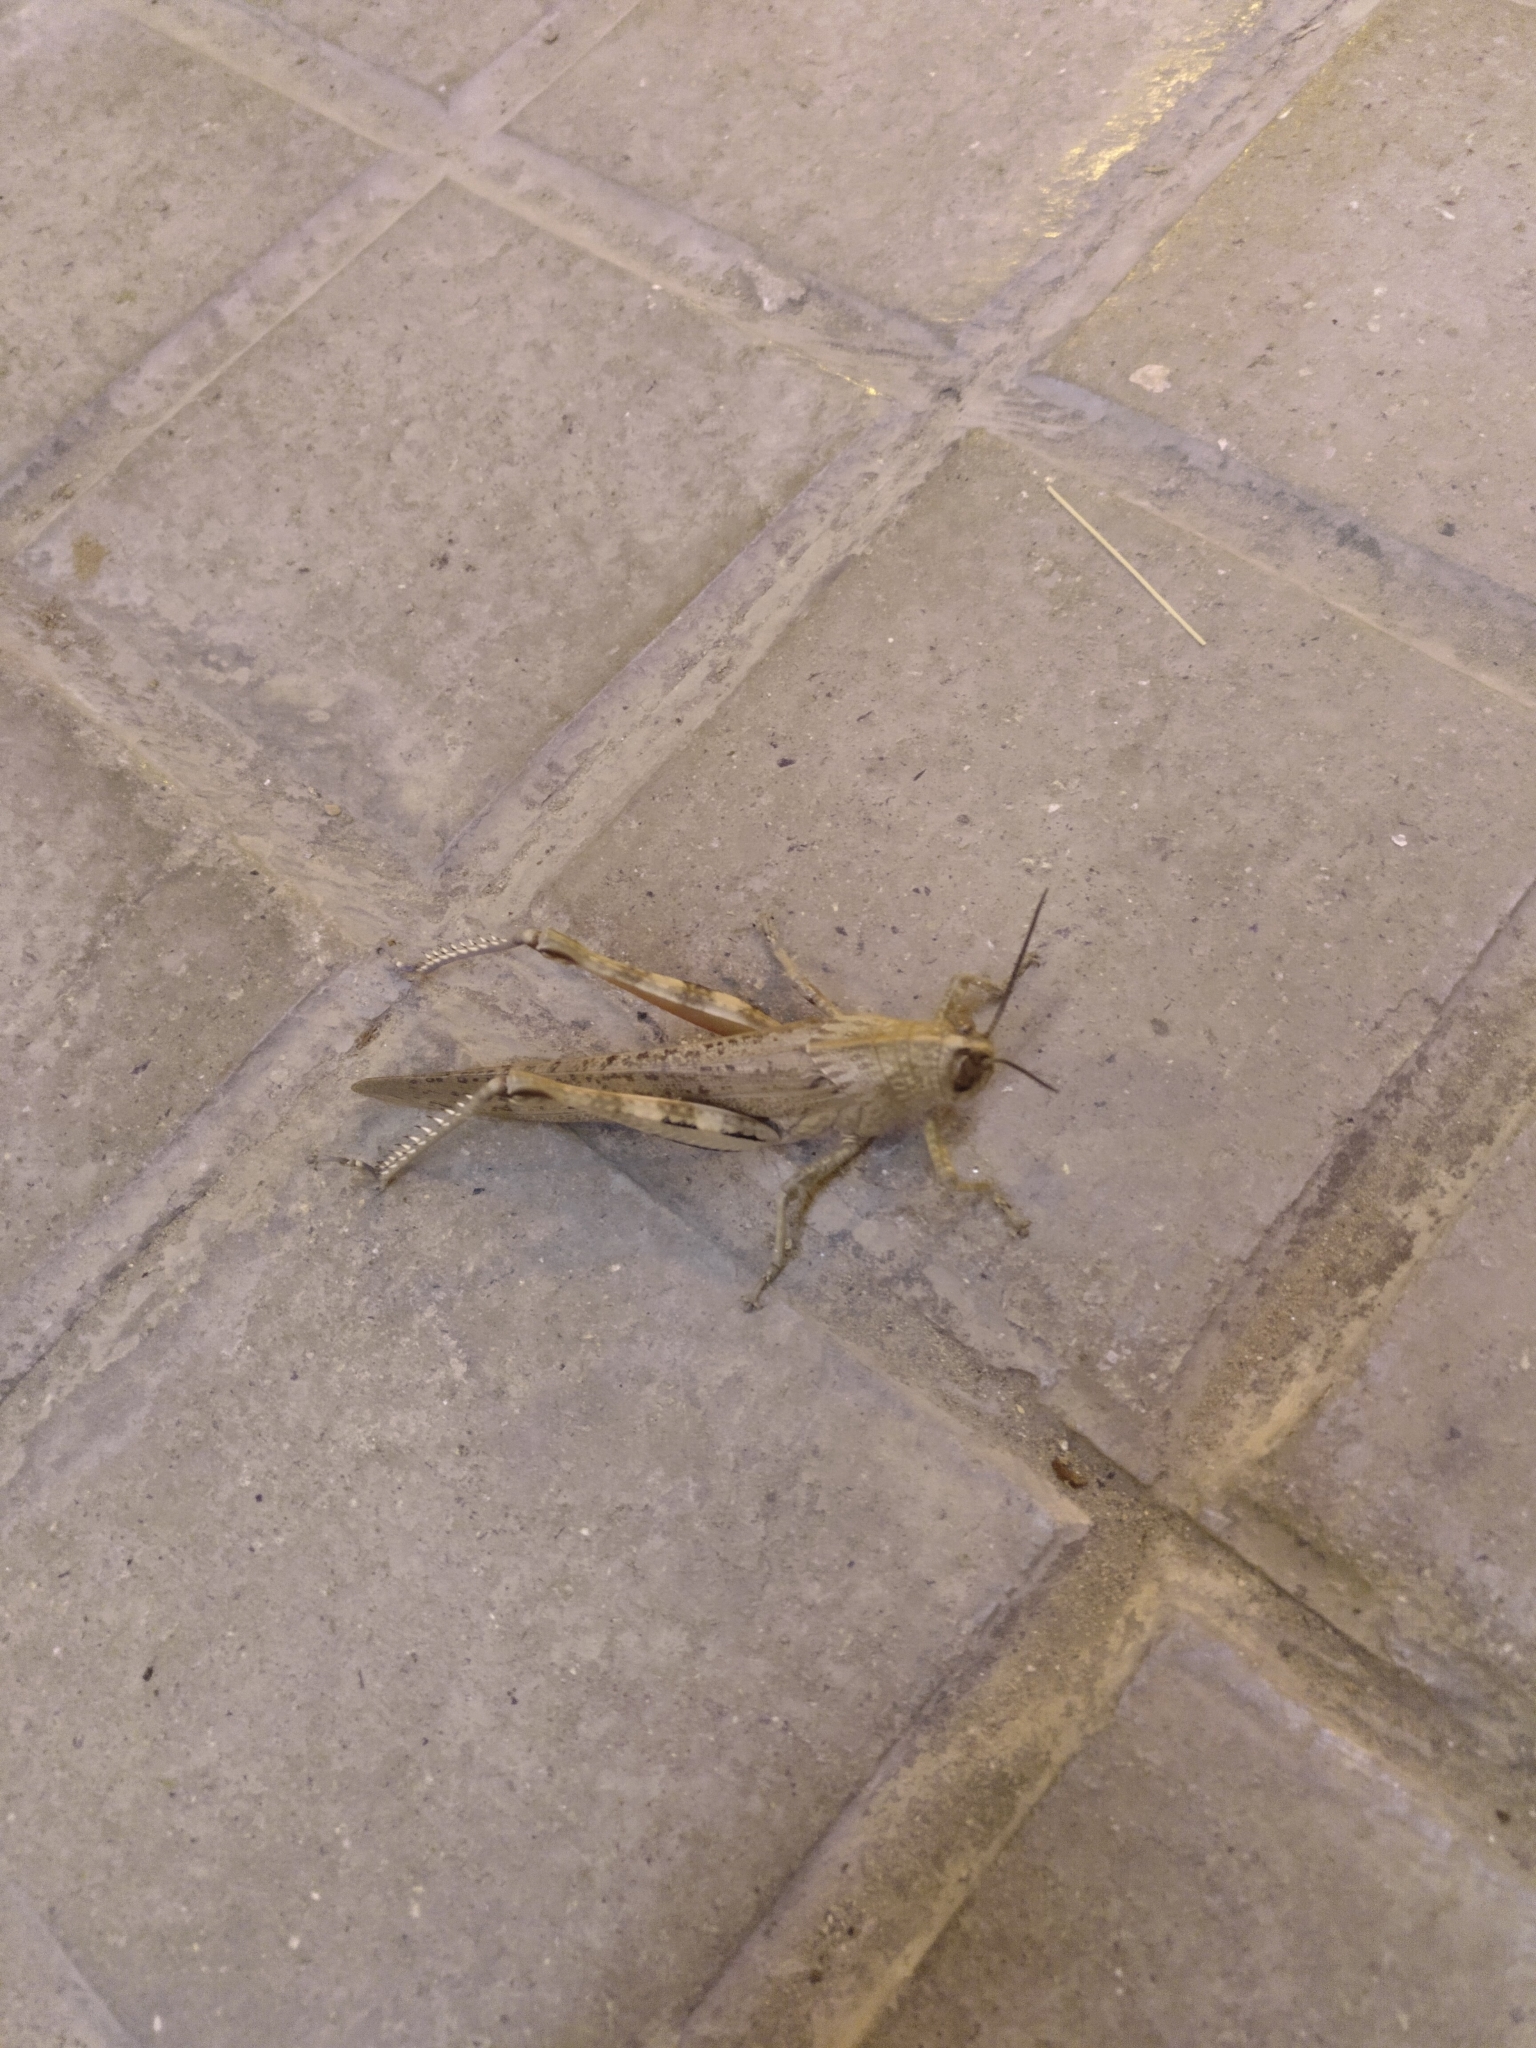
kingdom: Animalia
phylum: Arthropoda
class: Insecta
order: Orthoptera
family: Acrididae
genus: Anacridium
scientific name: Anacridium aegyptium
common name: Egyptian grasshopper
